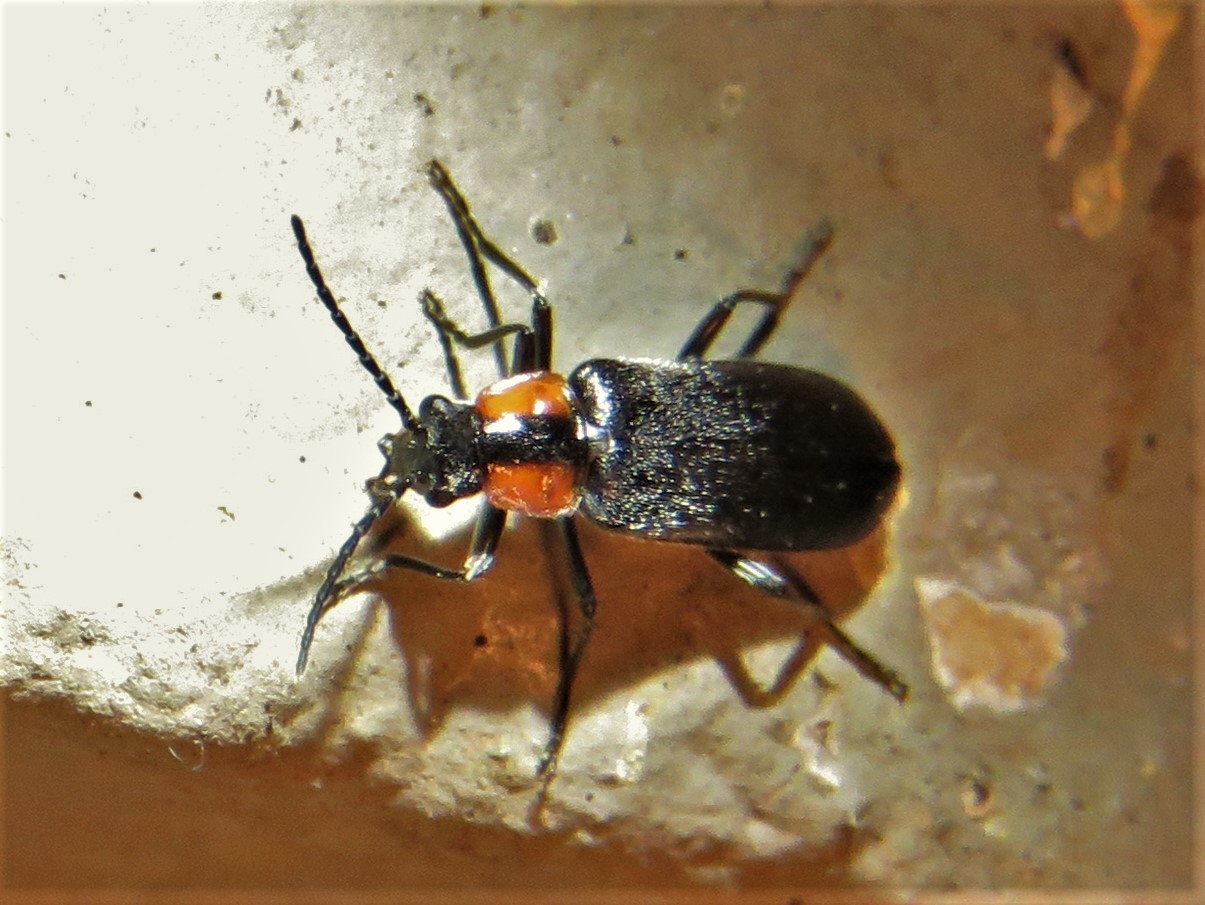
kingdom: Animalia
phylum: Arthropoda
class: Insecta
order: Coleoptera
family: Cantharidae
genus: Rhagonycha
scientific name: Rhagonycha lineola
